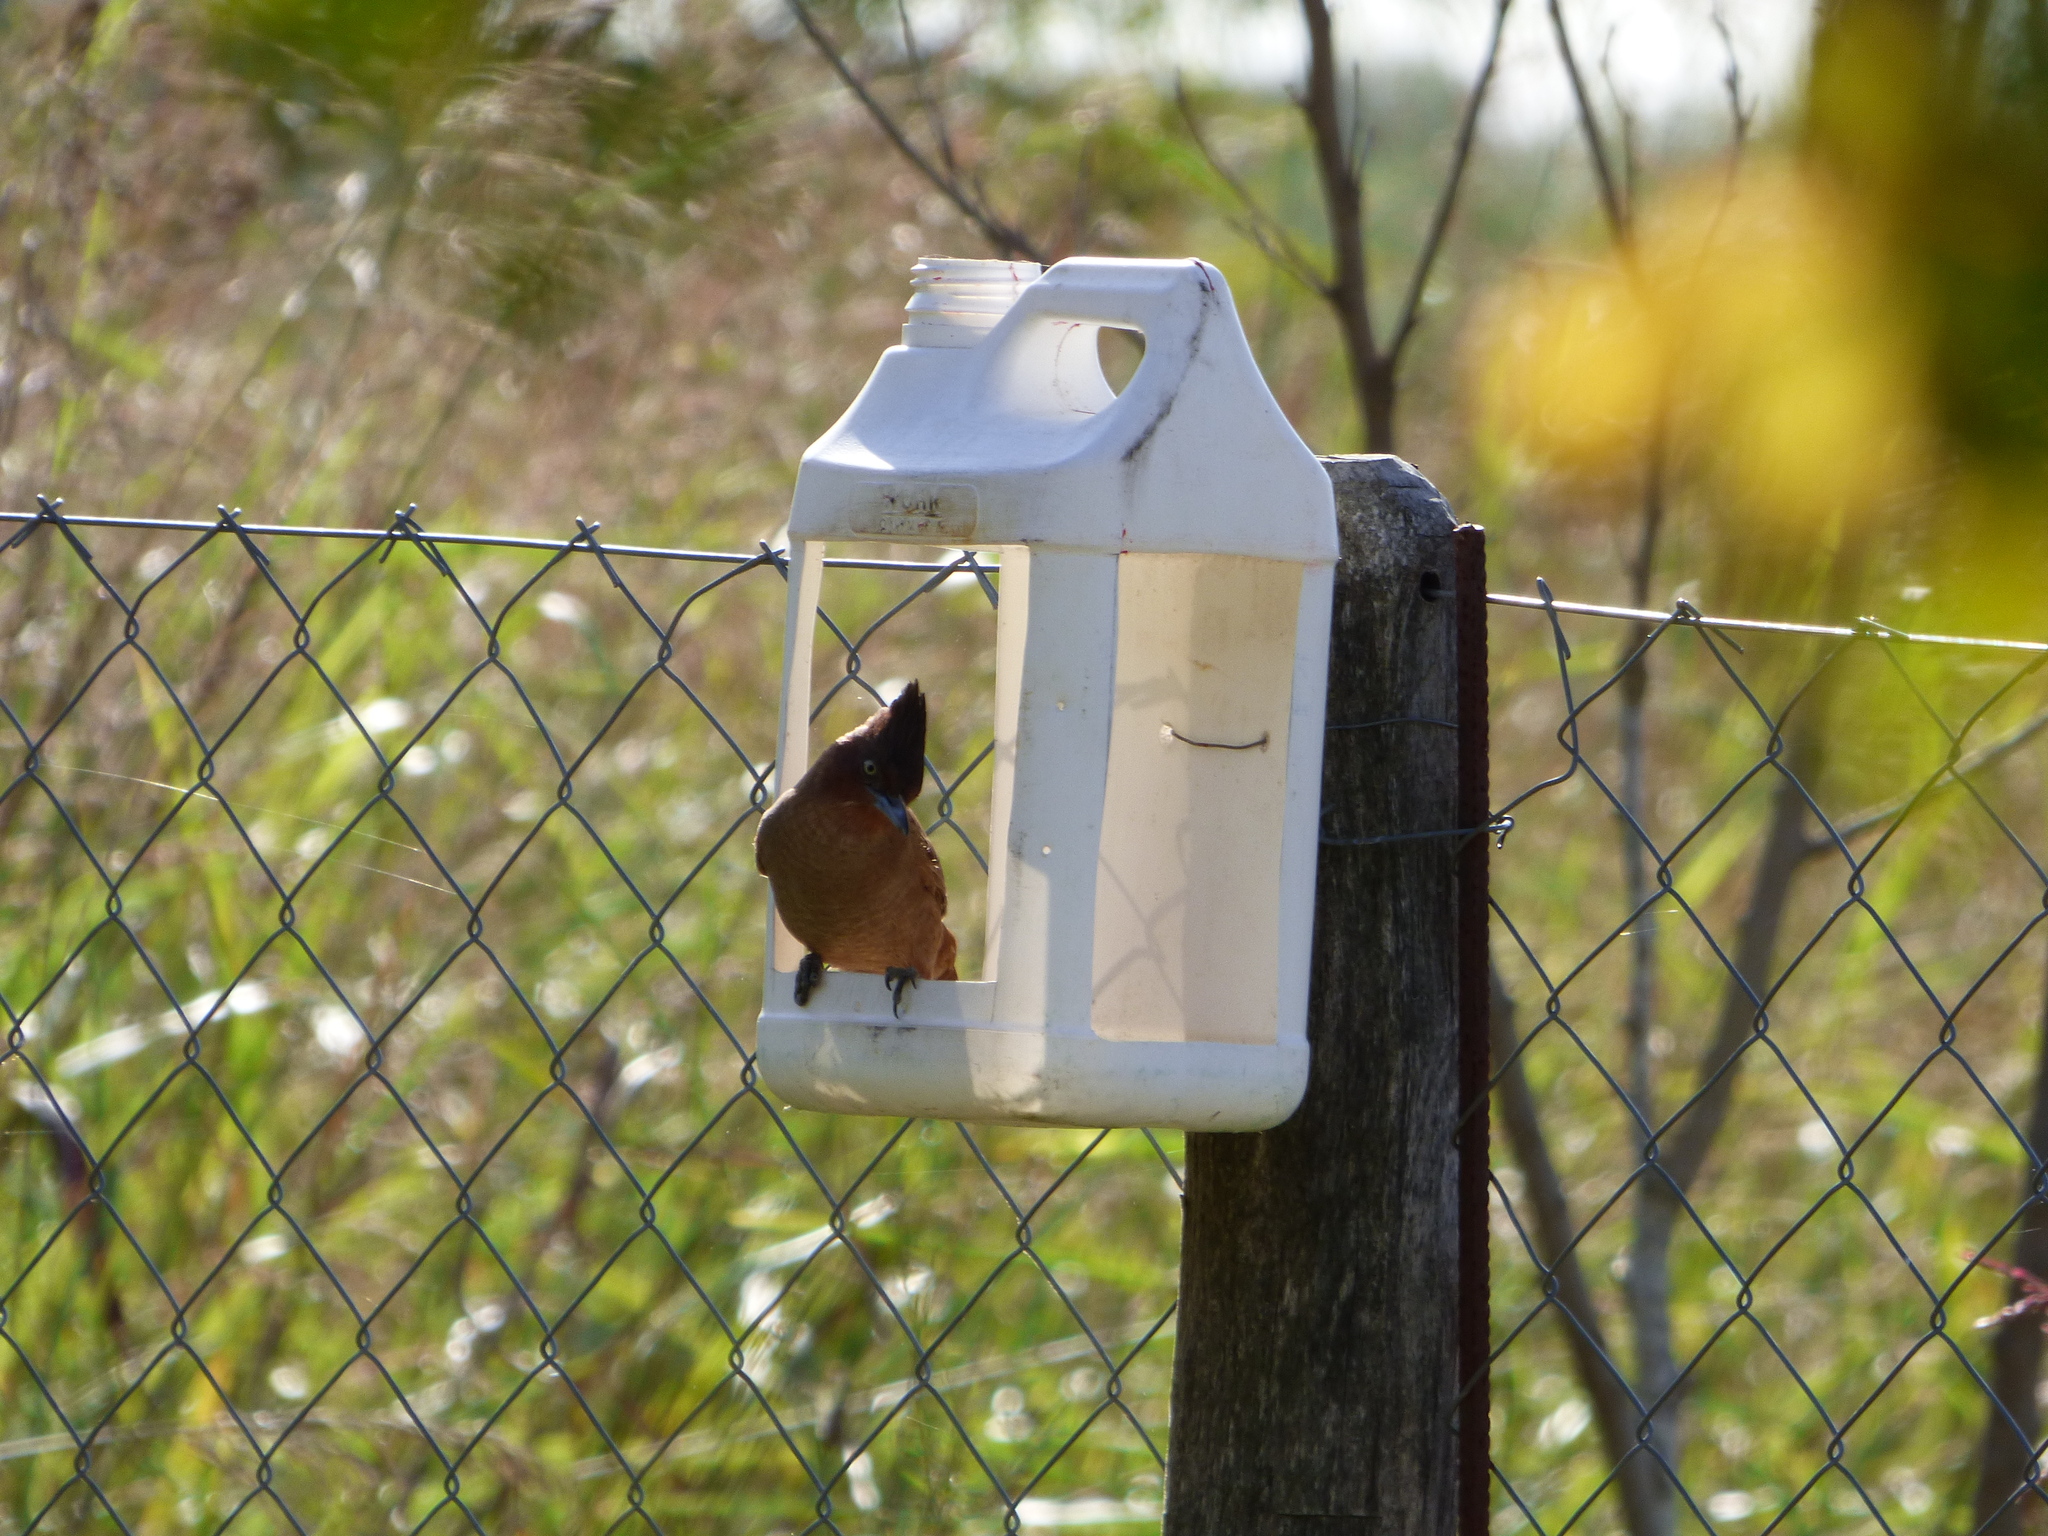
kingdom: Animalia
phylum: Chordata
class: Aves
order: Passeriformes
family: Furnariidae
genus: Pseudoseisura
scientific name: Pseudoseisura lophotes
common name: Brown cacholote
